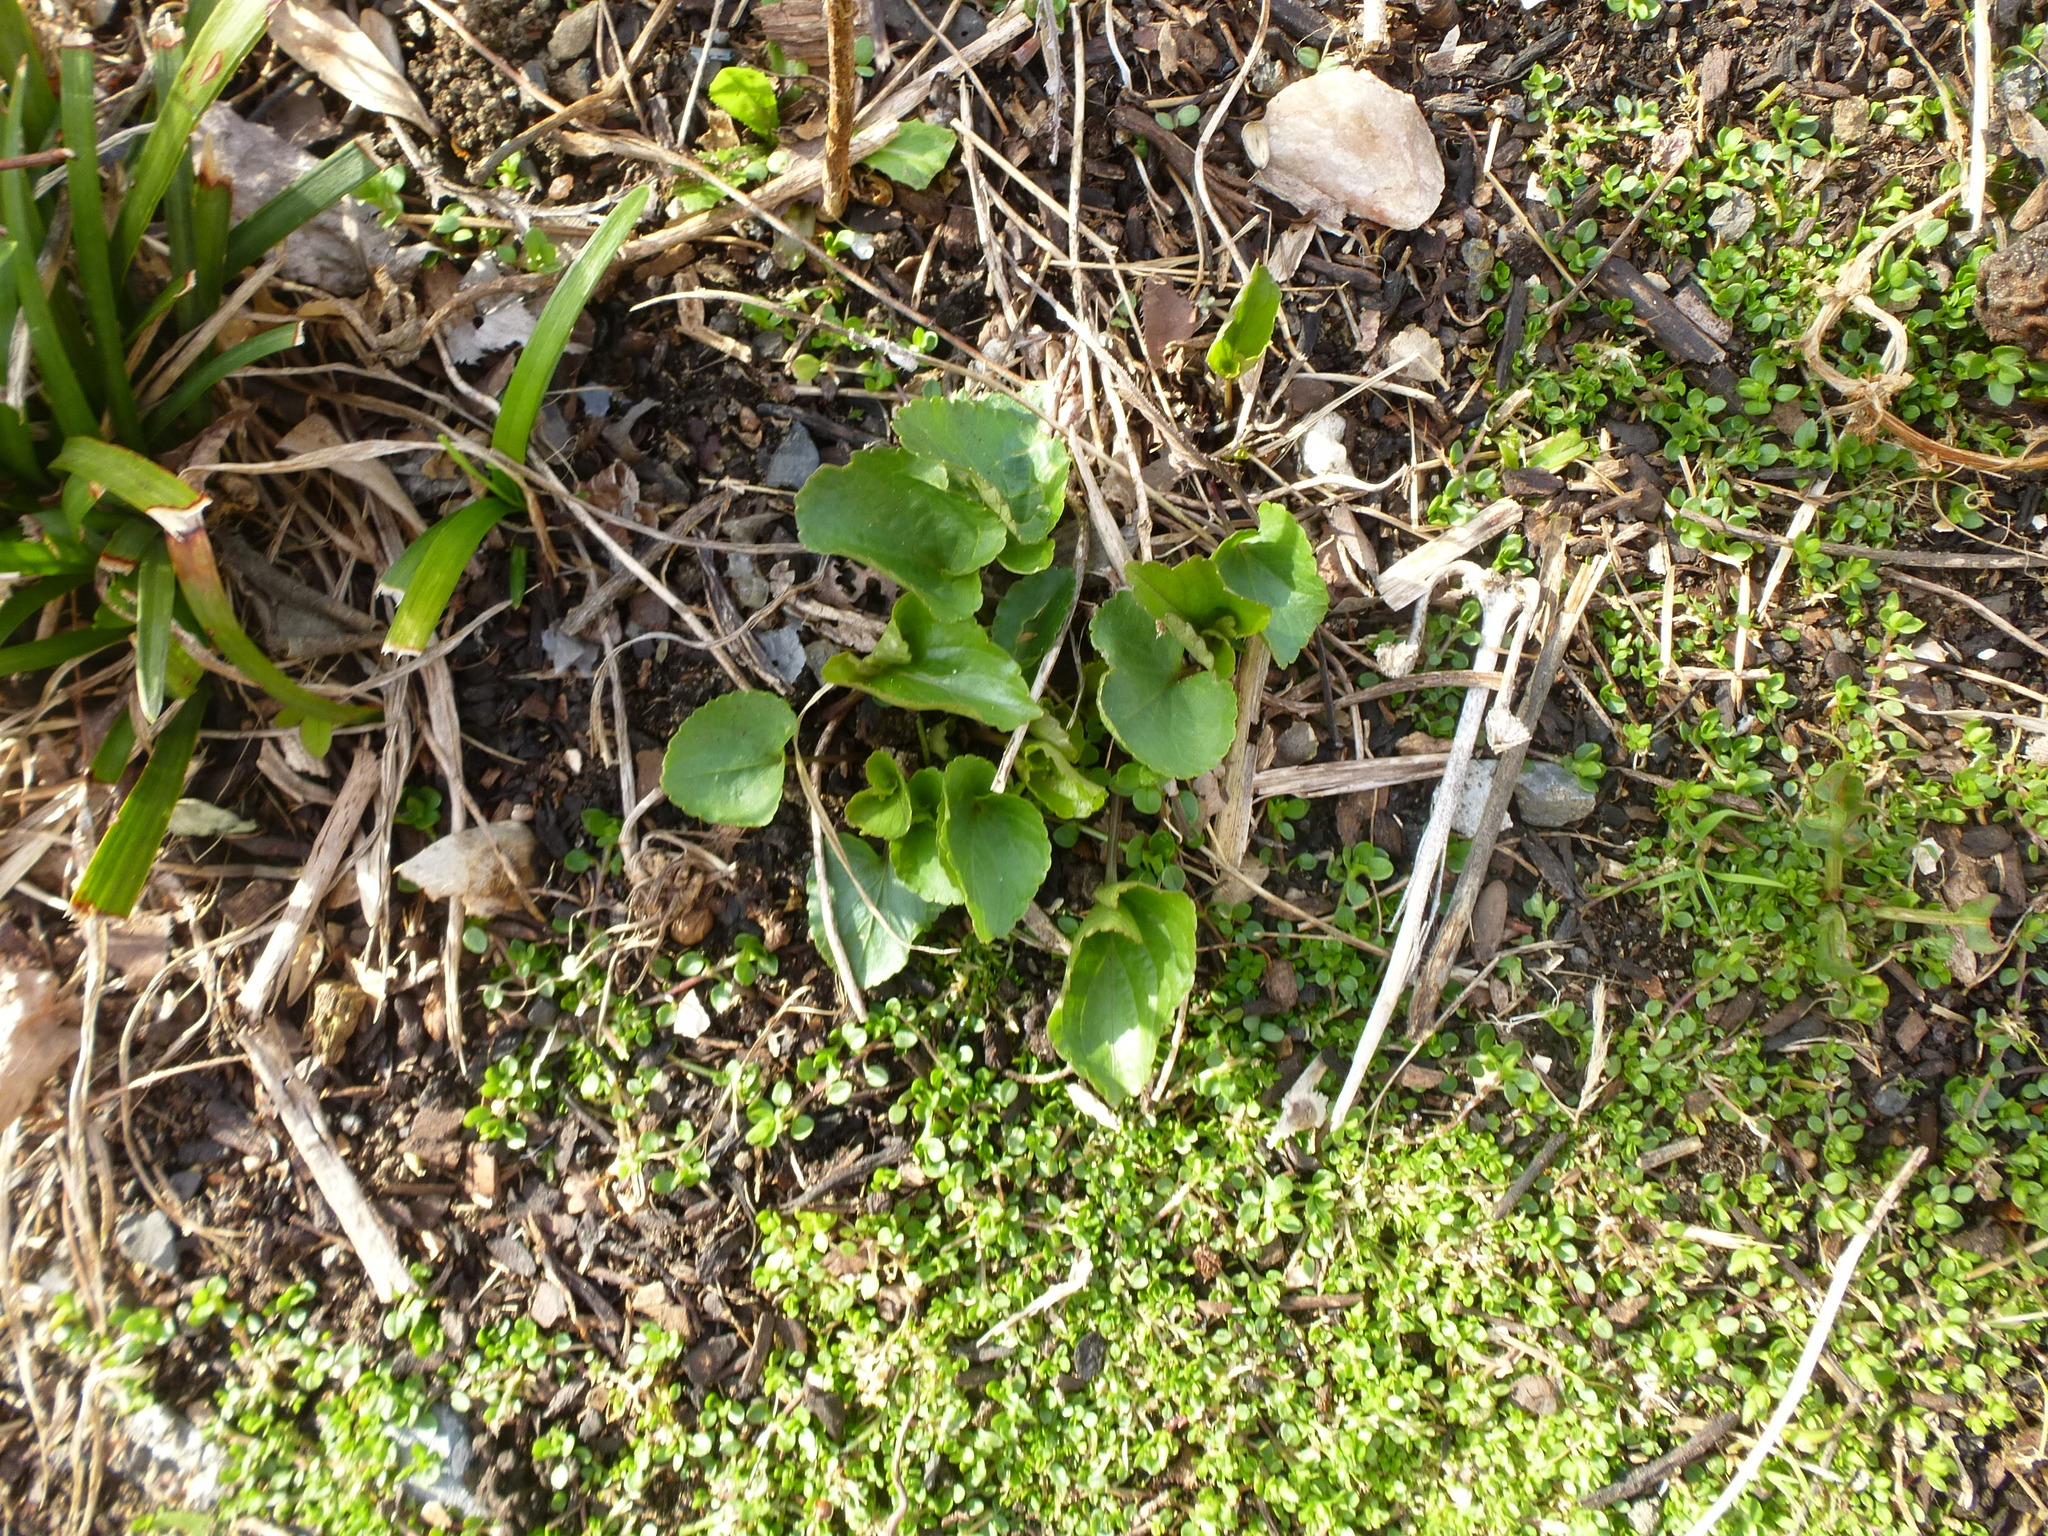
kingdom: Plantae
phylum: Tracheophyta
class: Magnoliopsida
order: Malpighiales
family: Violaceae
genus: Viola
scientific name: Viola sororia
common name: Dooryard violet
